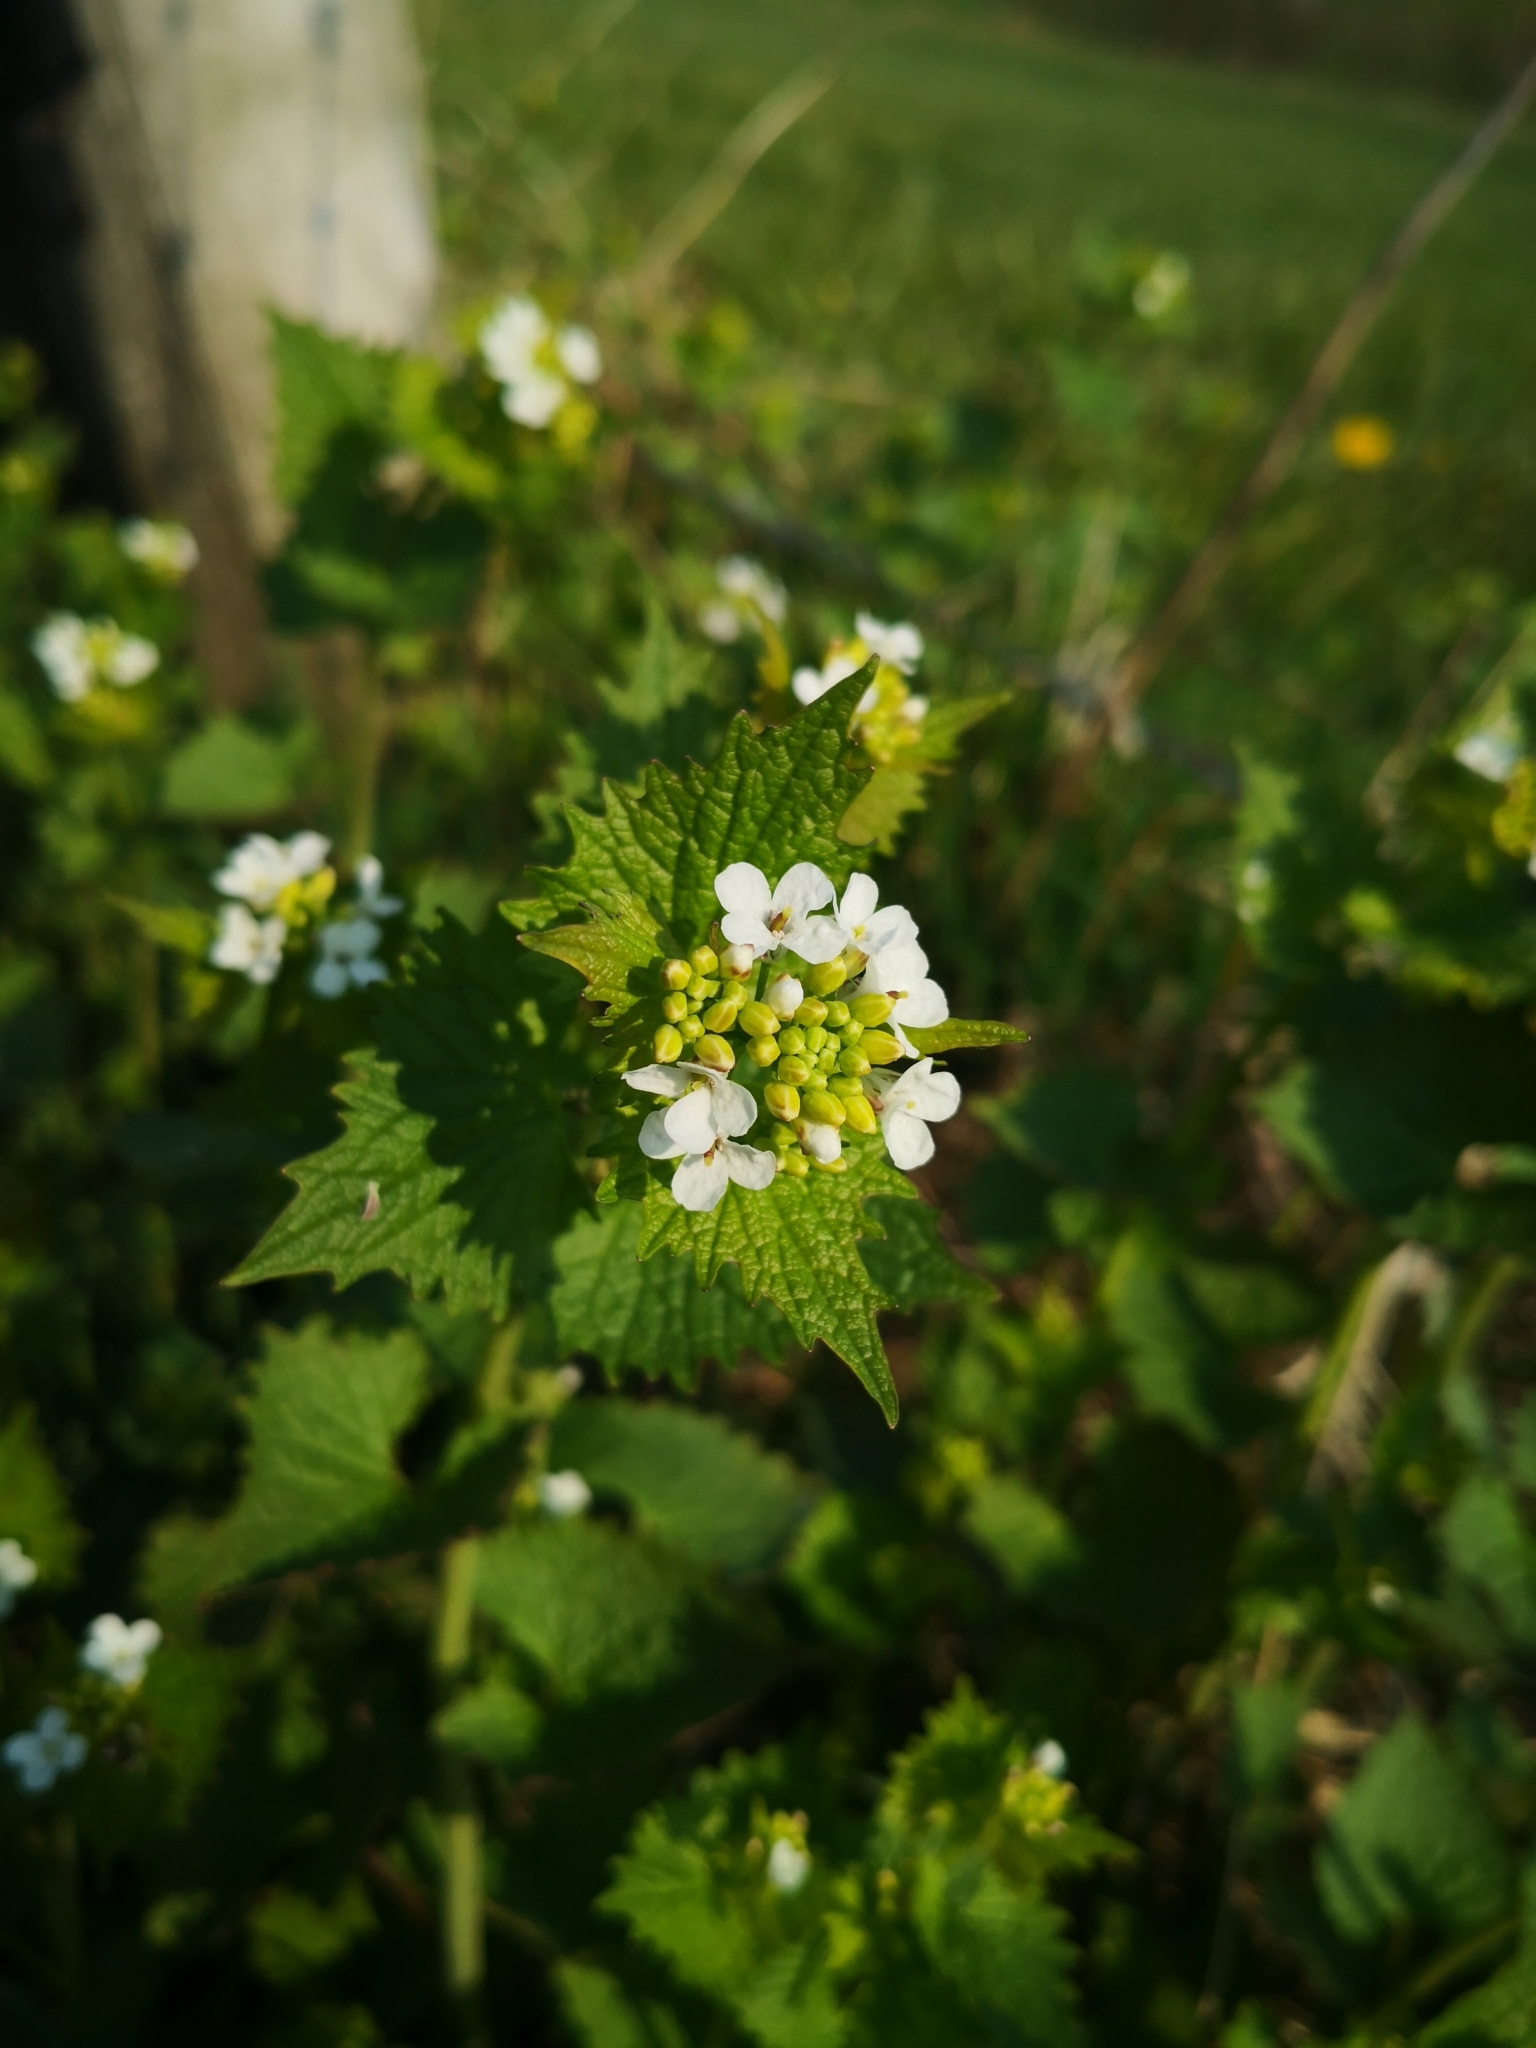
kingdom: Plantae
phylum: Tracheophyta
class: Magnoliopsida
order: Brassicales
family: Brassicaceae
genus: Alliaria
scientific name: Alliaria petiolata
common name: Garlic mustard
